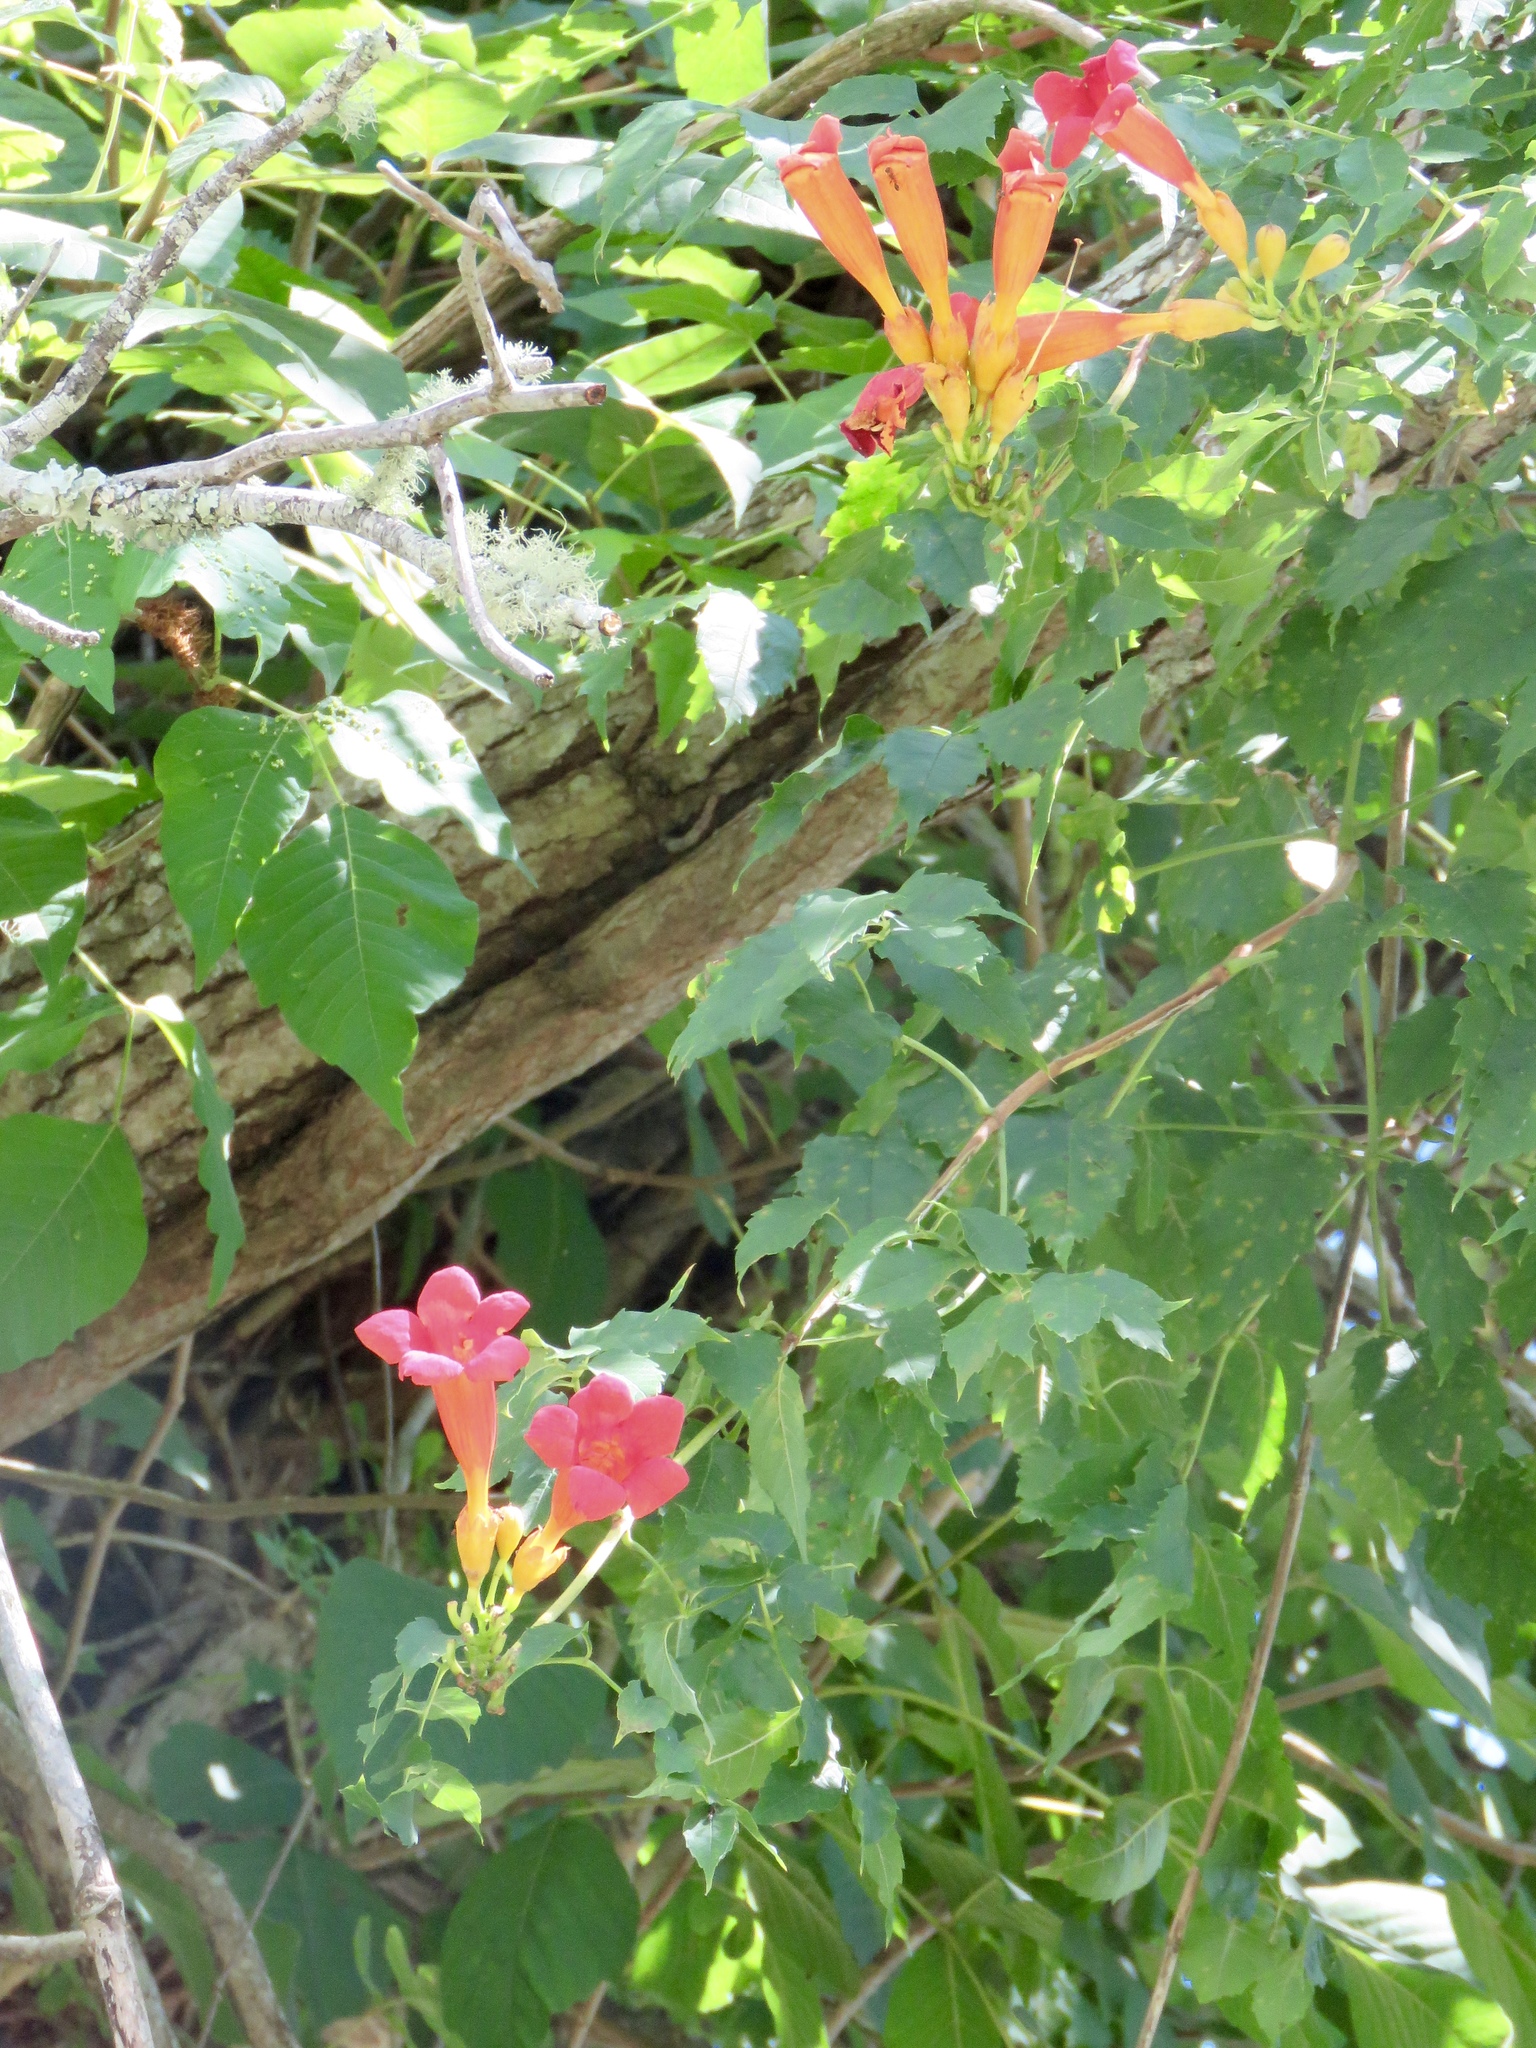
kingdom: Plantae
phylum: Tracheophyta
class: Magnoliopsida
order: Lamiales
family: Bignoniaceae
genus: Campsis
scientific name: Campsis radicans
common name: Trumpet-creeper
